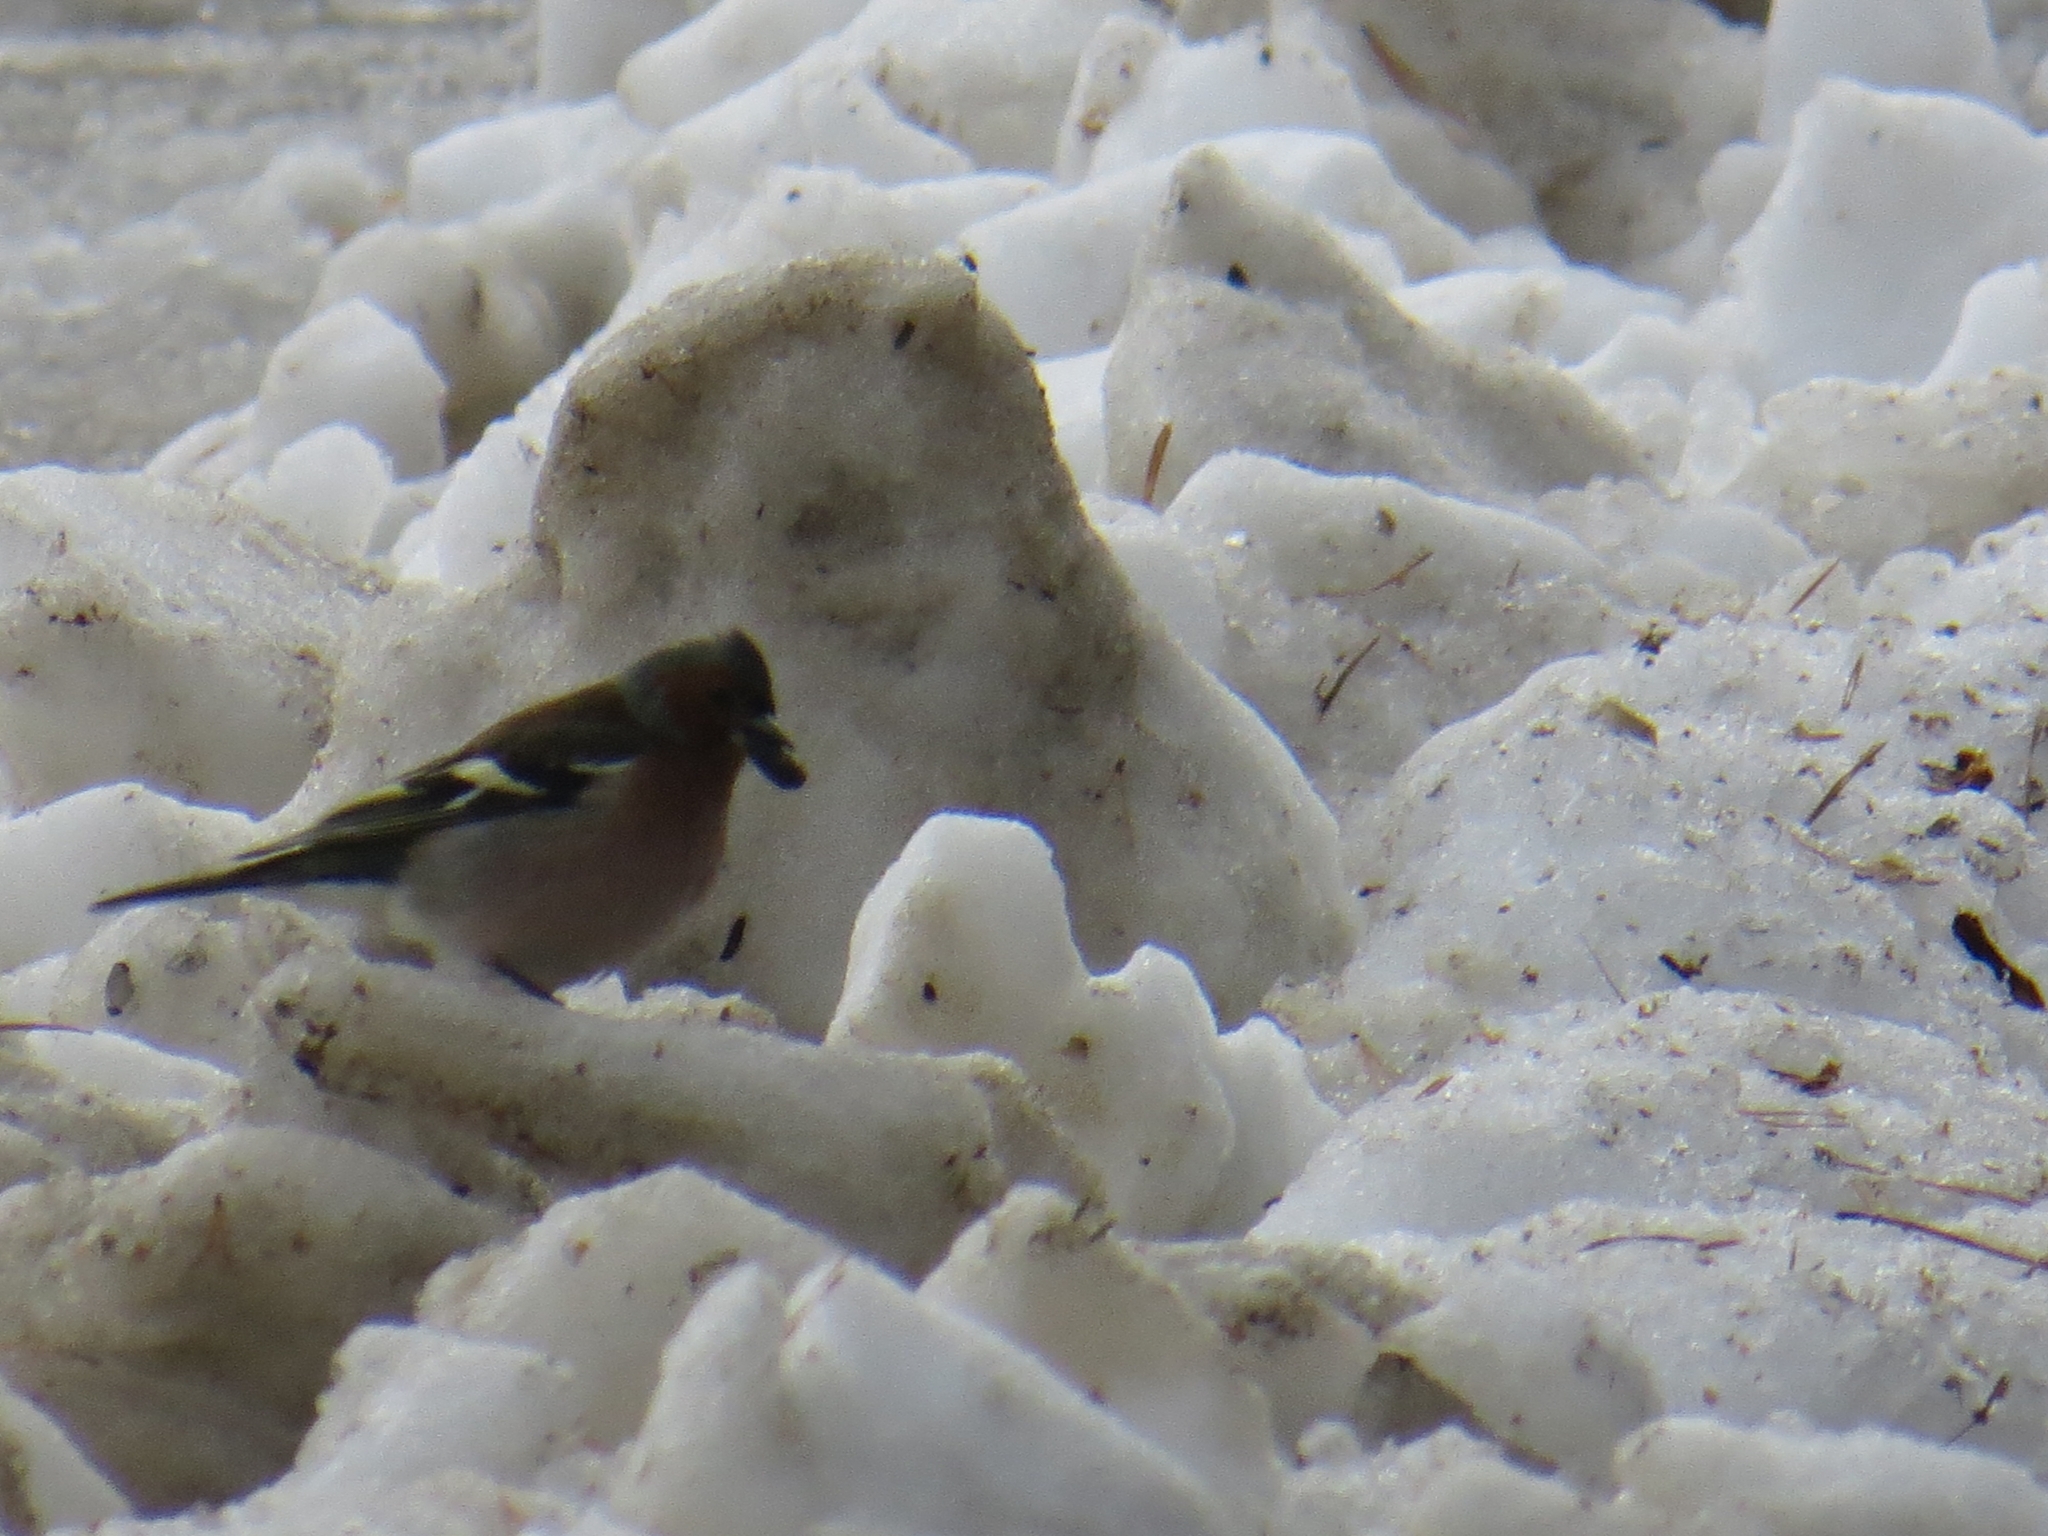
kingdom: Animalia
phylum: Chordata
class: Aves
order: Passeriformes
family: Fringillidae
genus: Fringilla
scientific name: Fringilla coelebs
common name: Common chaffinch
